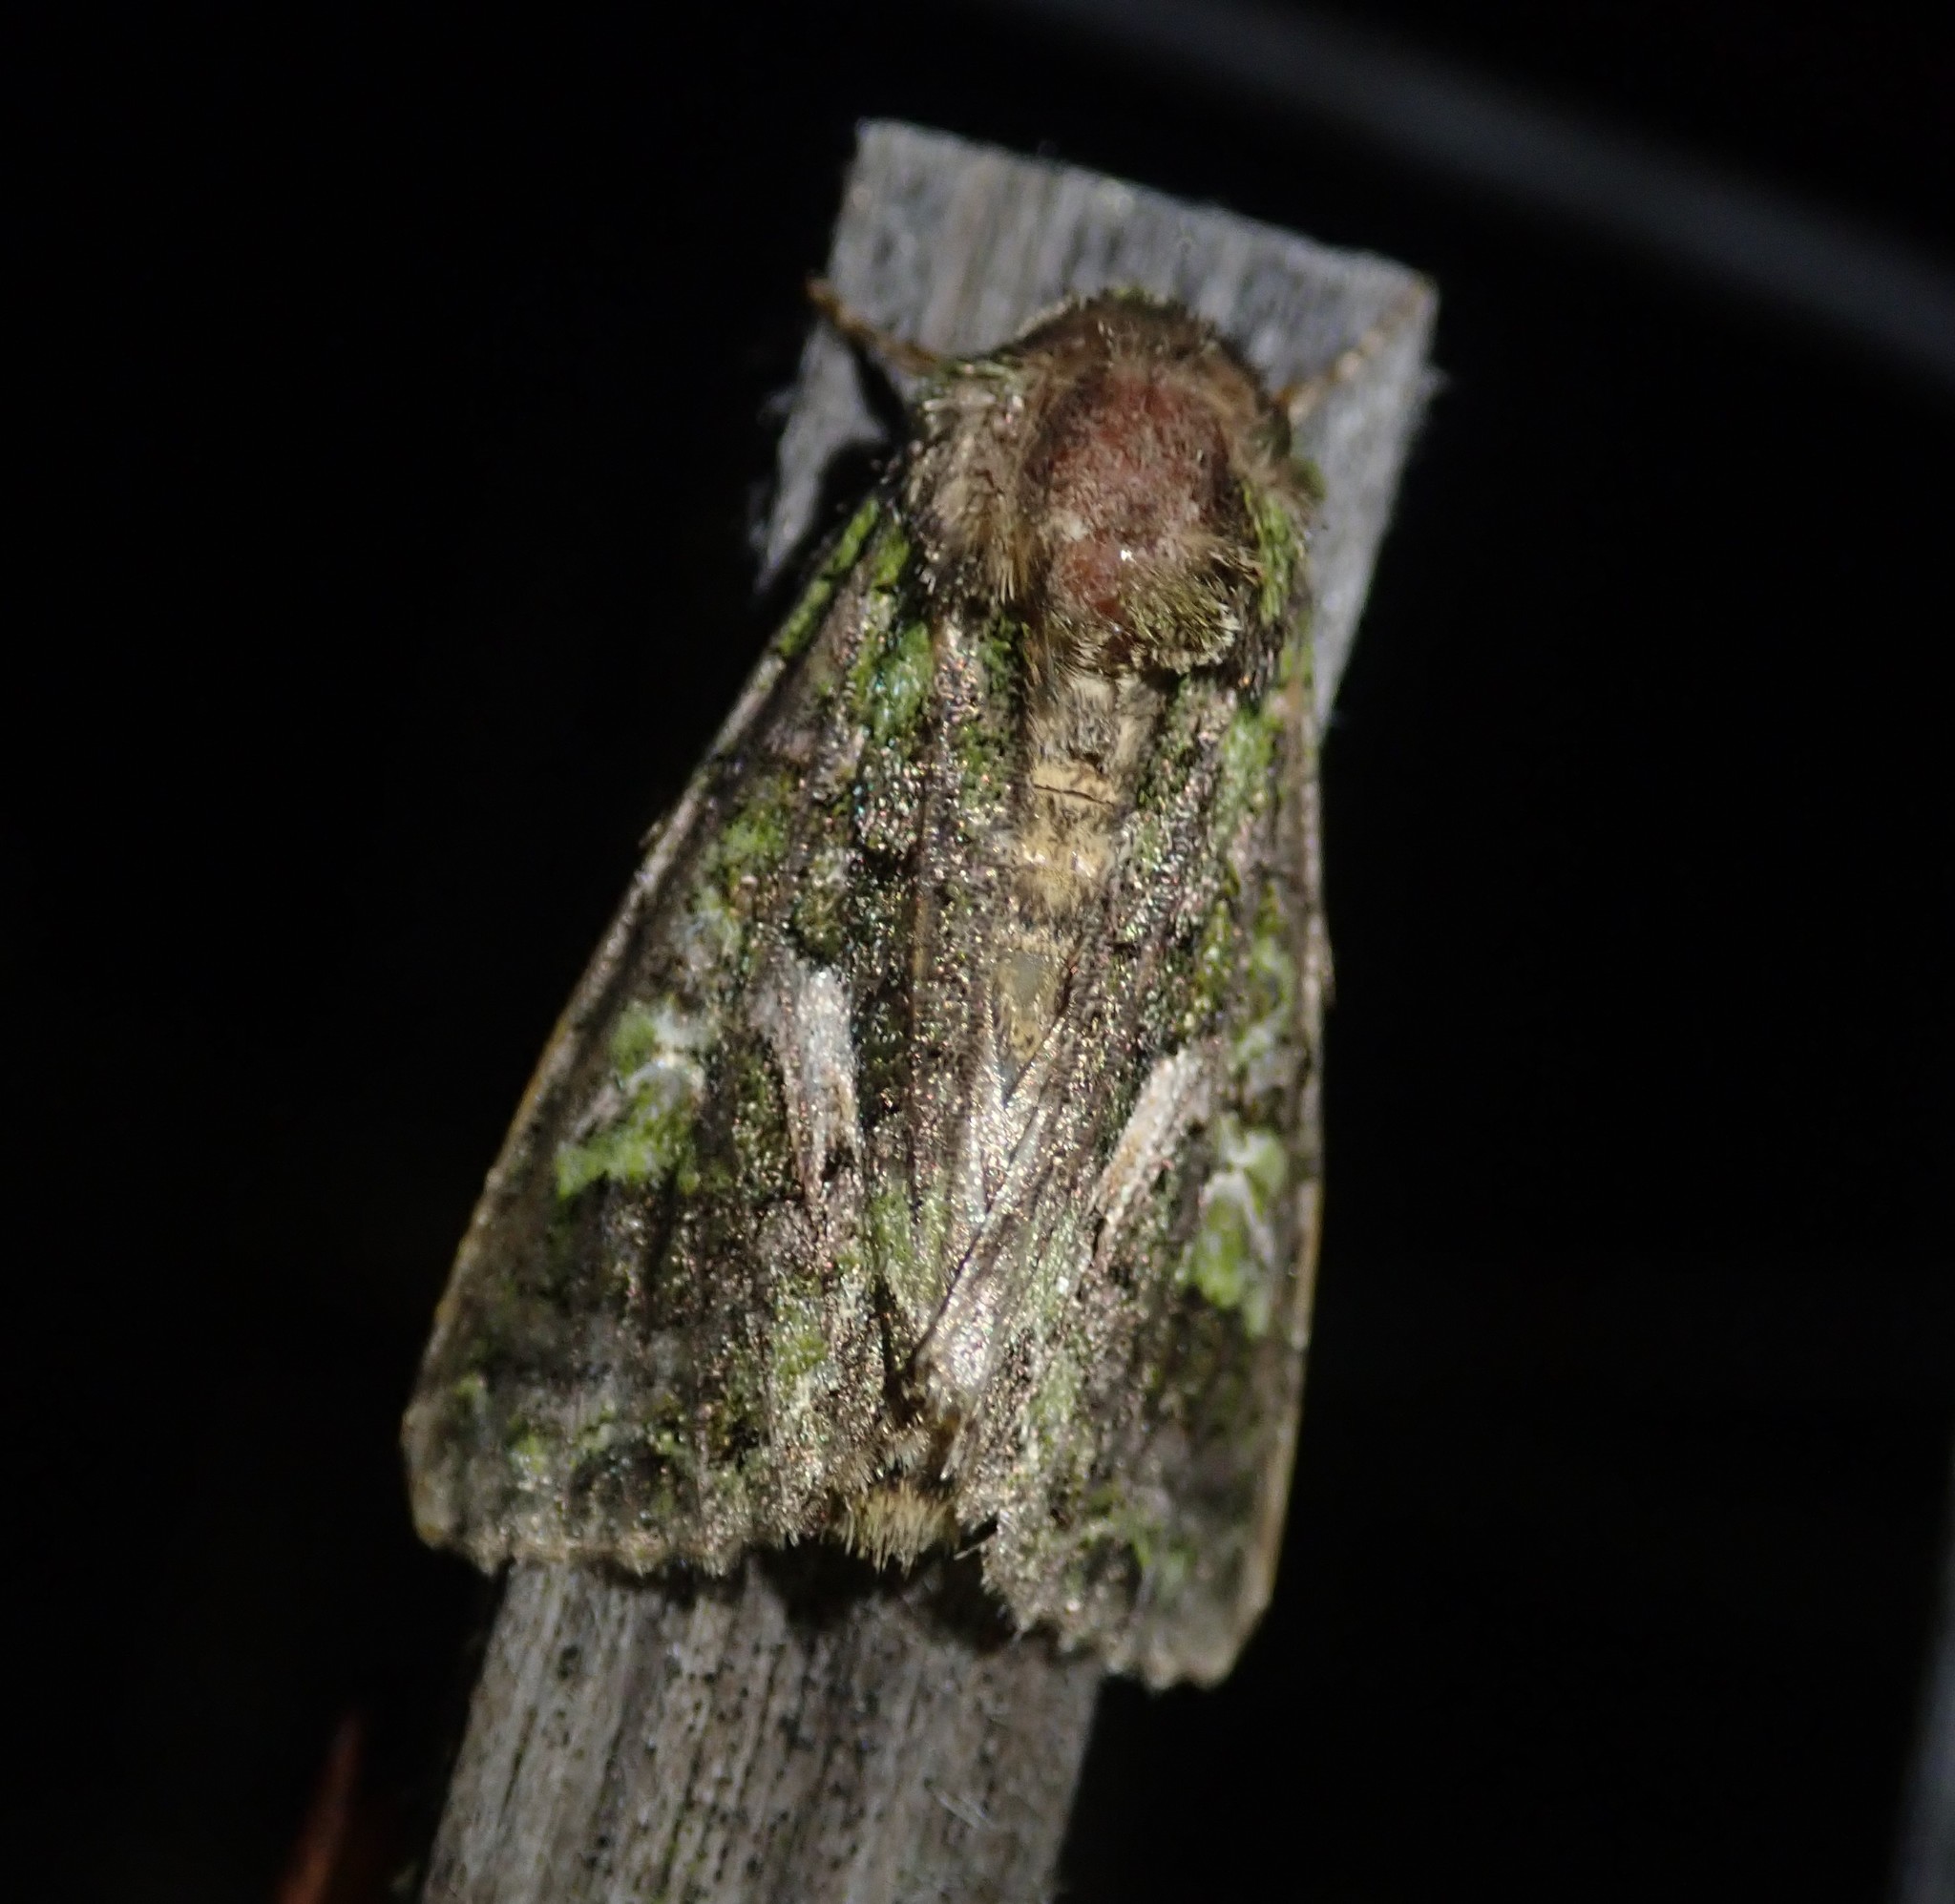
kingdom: Animalia
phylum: Arthropoda
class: Insecta
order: Lepidoptera
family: Noctuidae
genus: Trachea
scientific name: Trachea atriplicis
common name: Orache moth
